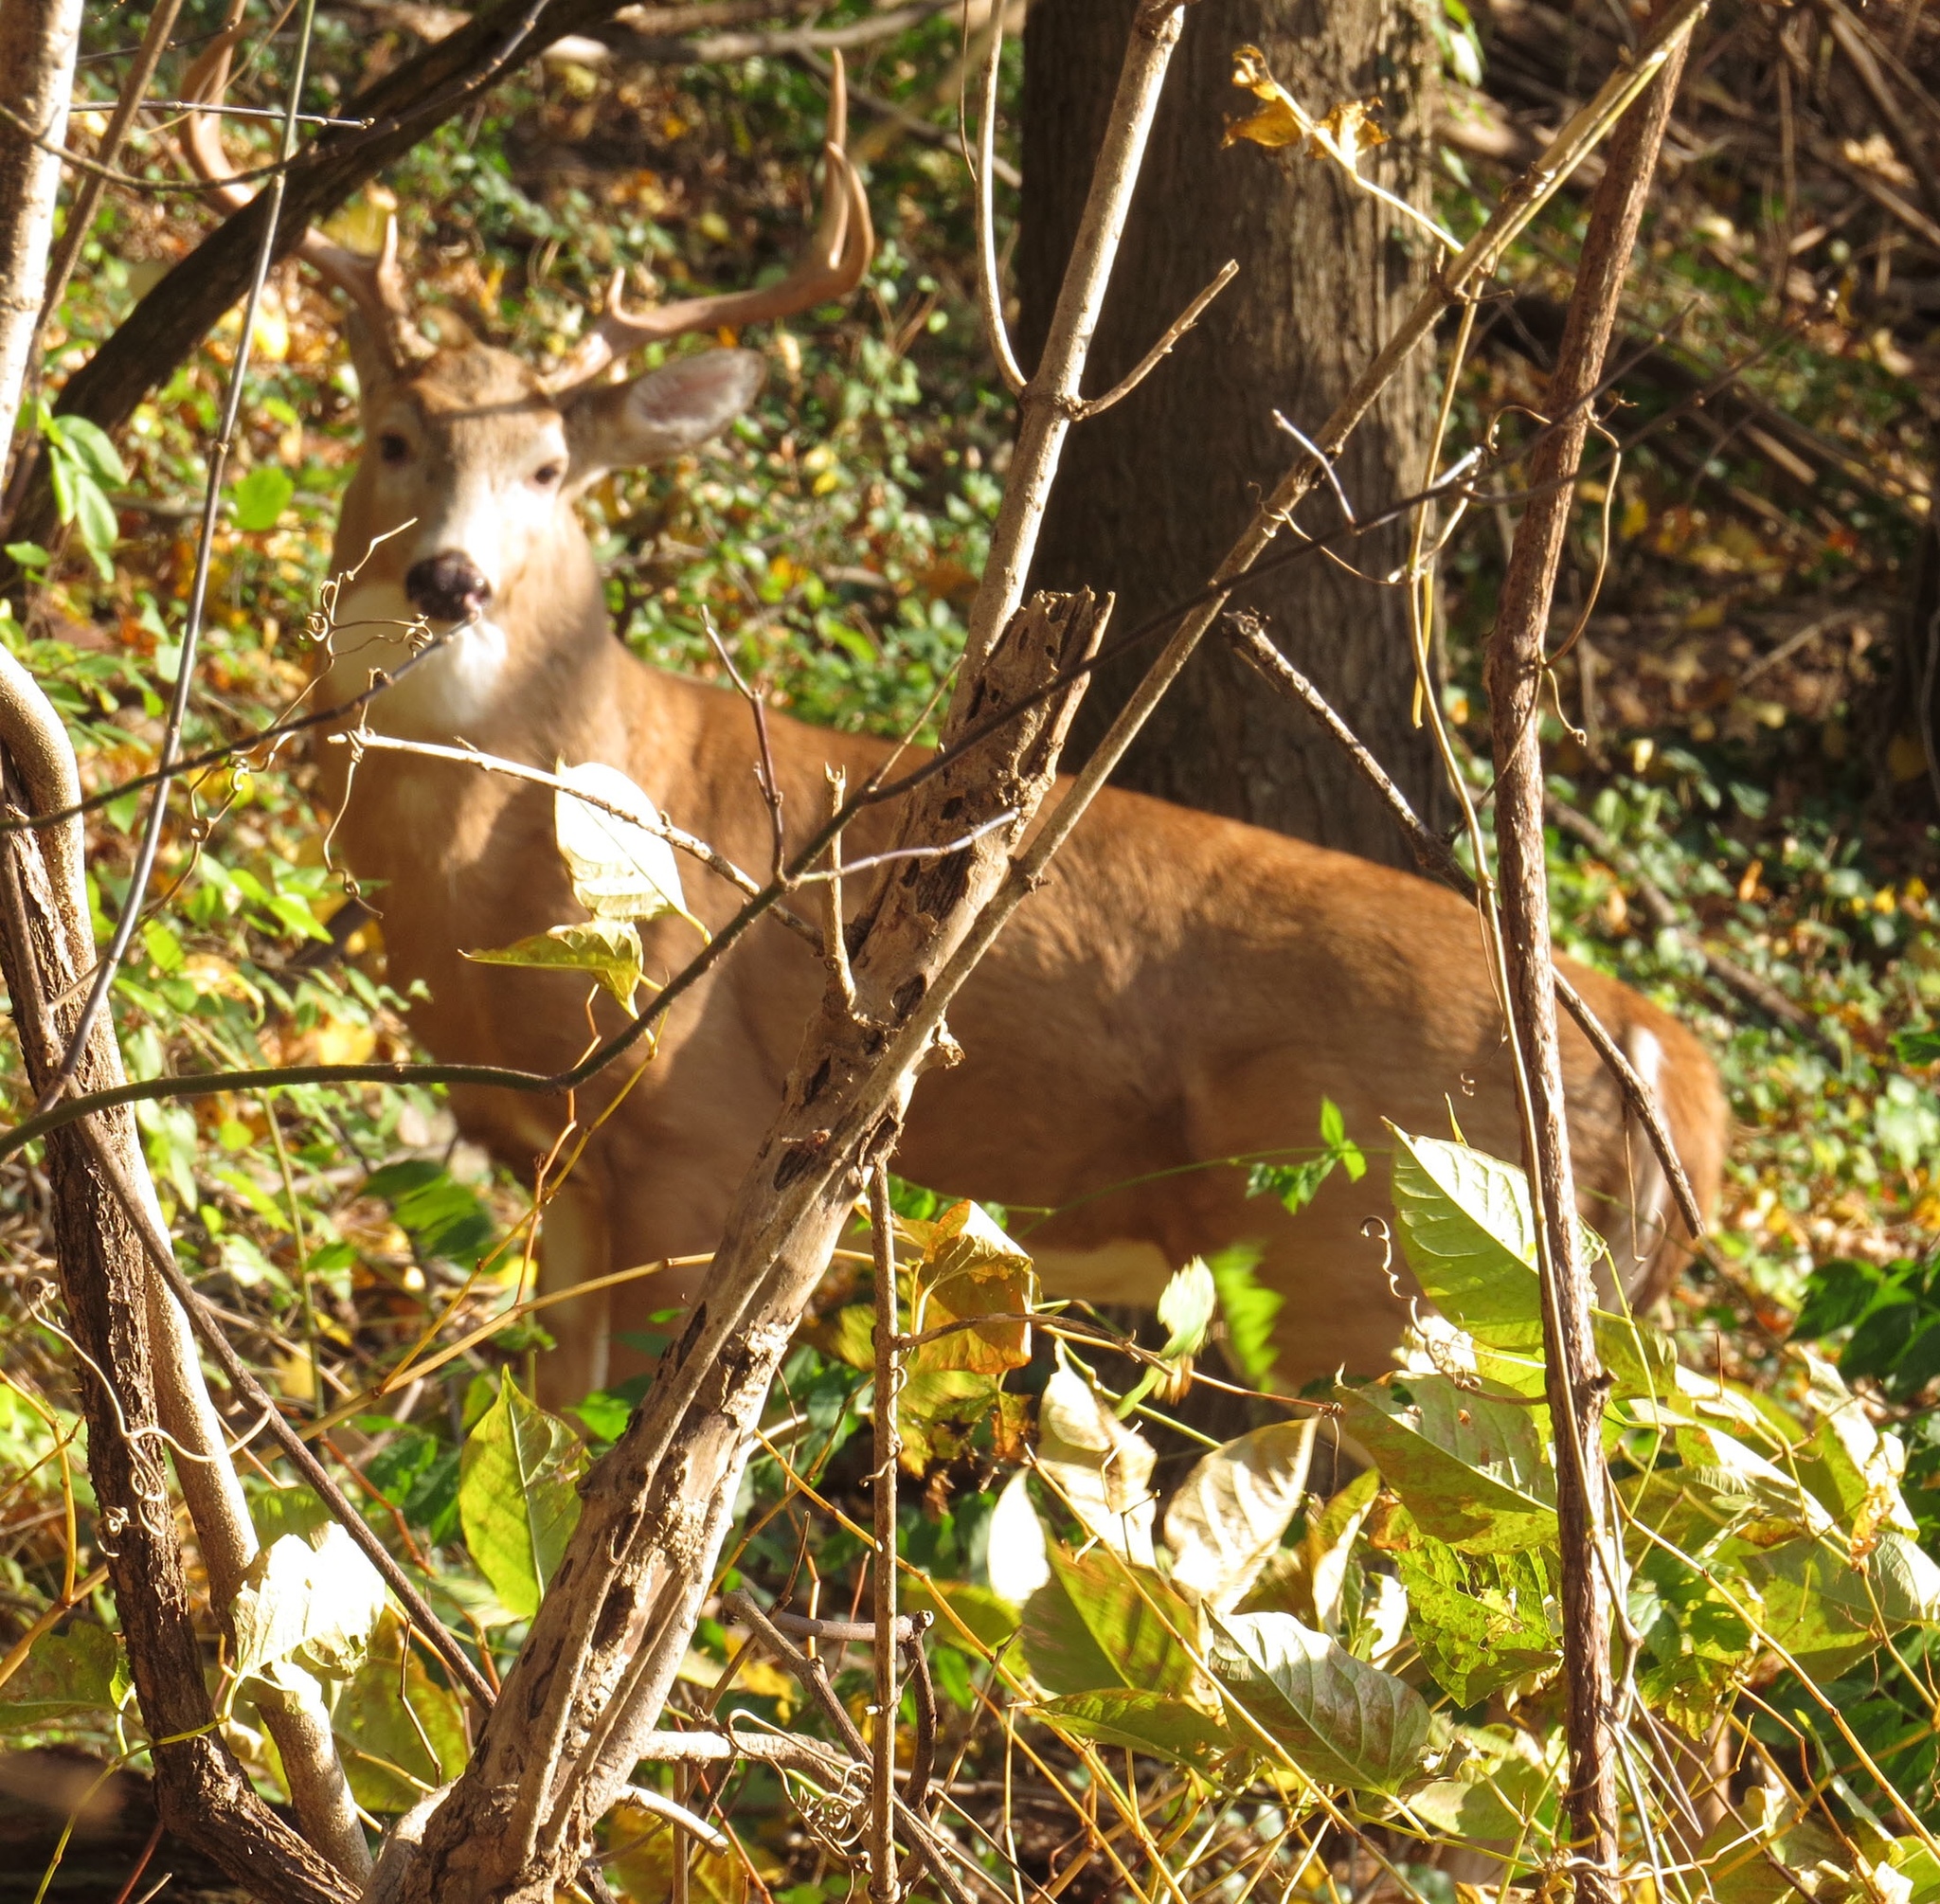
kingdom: Animalia
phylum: Chordata
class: Mammalia
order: Artiodactyla
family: Cervidae
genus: Odocoileus
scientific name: Odocoileus virginianus
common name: White-tailed deer
